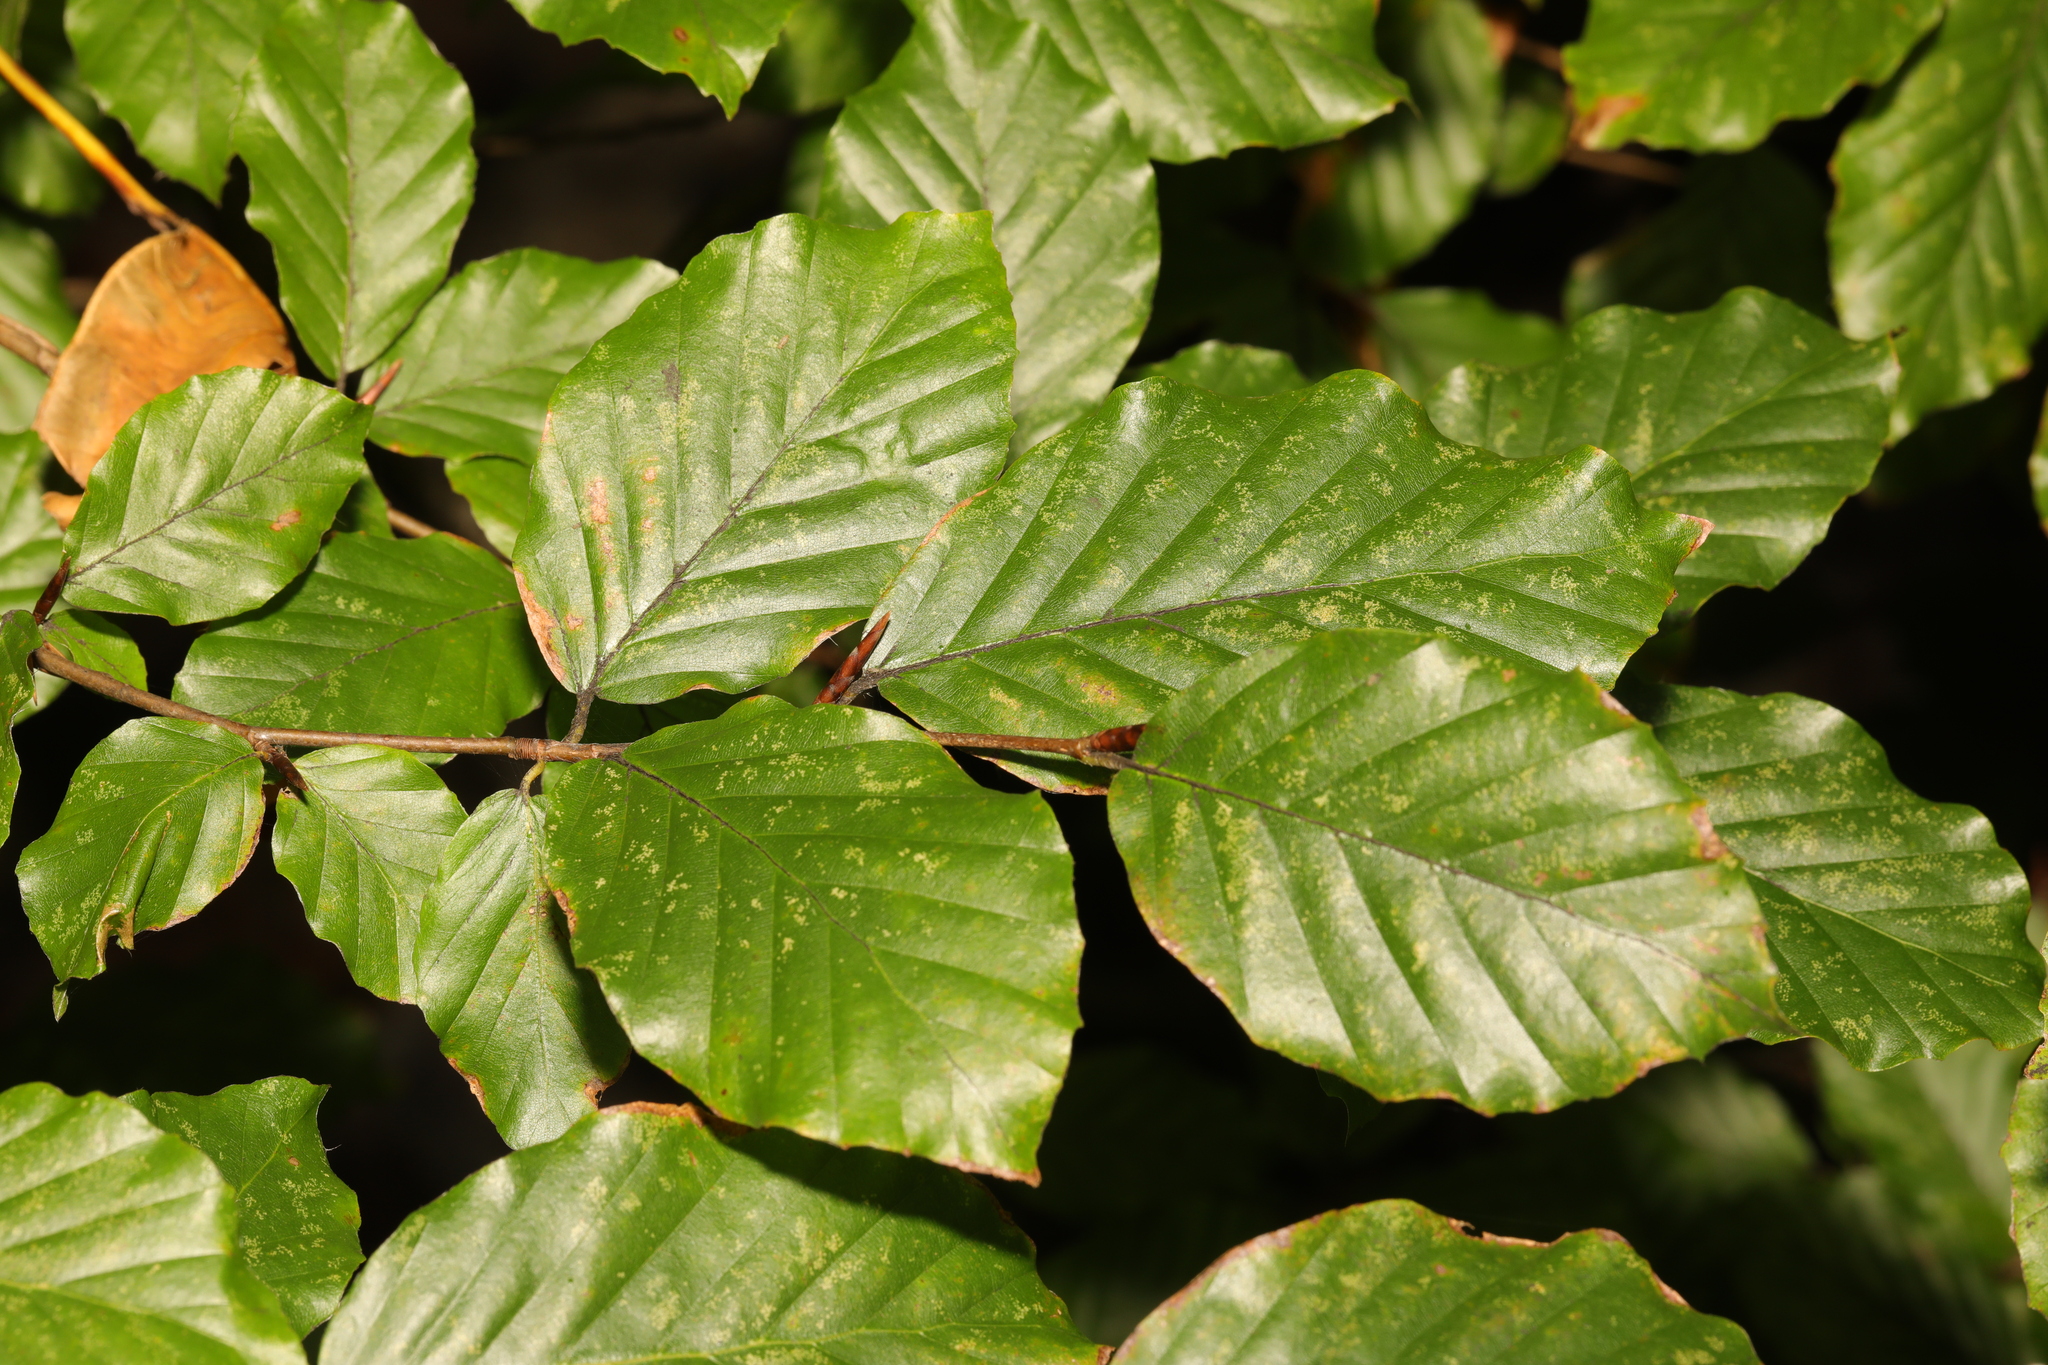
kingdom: Plantae
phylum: Tracheophyta
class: Magnoliopsida
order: Fagales
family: Fagaceae
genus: Fagus
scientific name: Fagus sylvatica
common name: Beech
